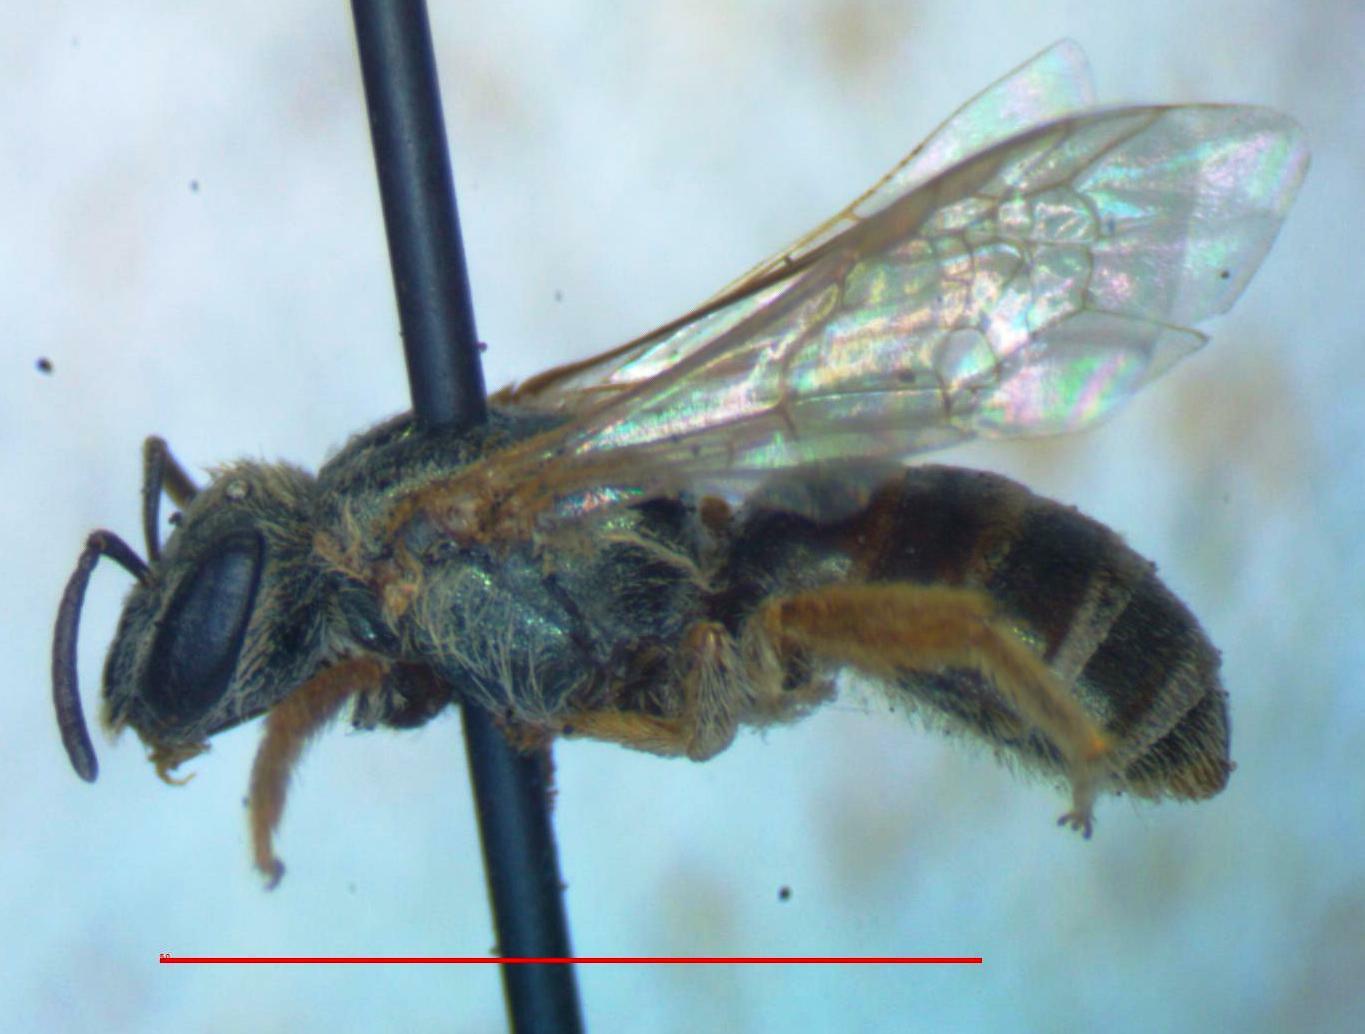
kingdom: Animalia
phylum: Arthropoda
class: Insecta
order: Hymenoptera
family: Halictidae
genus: Halictus
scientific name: Halictus hesperus
